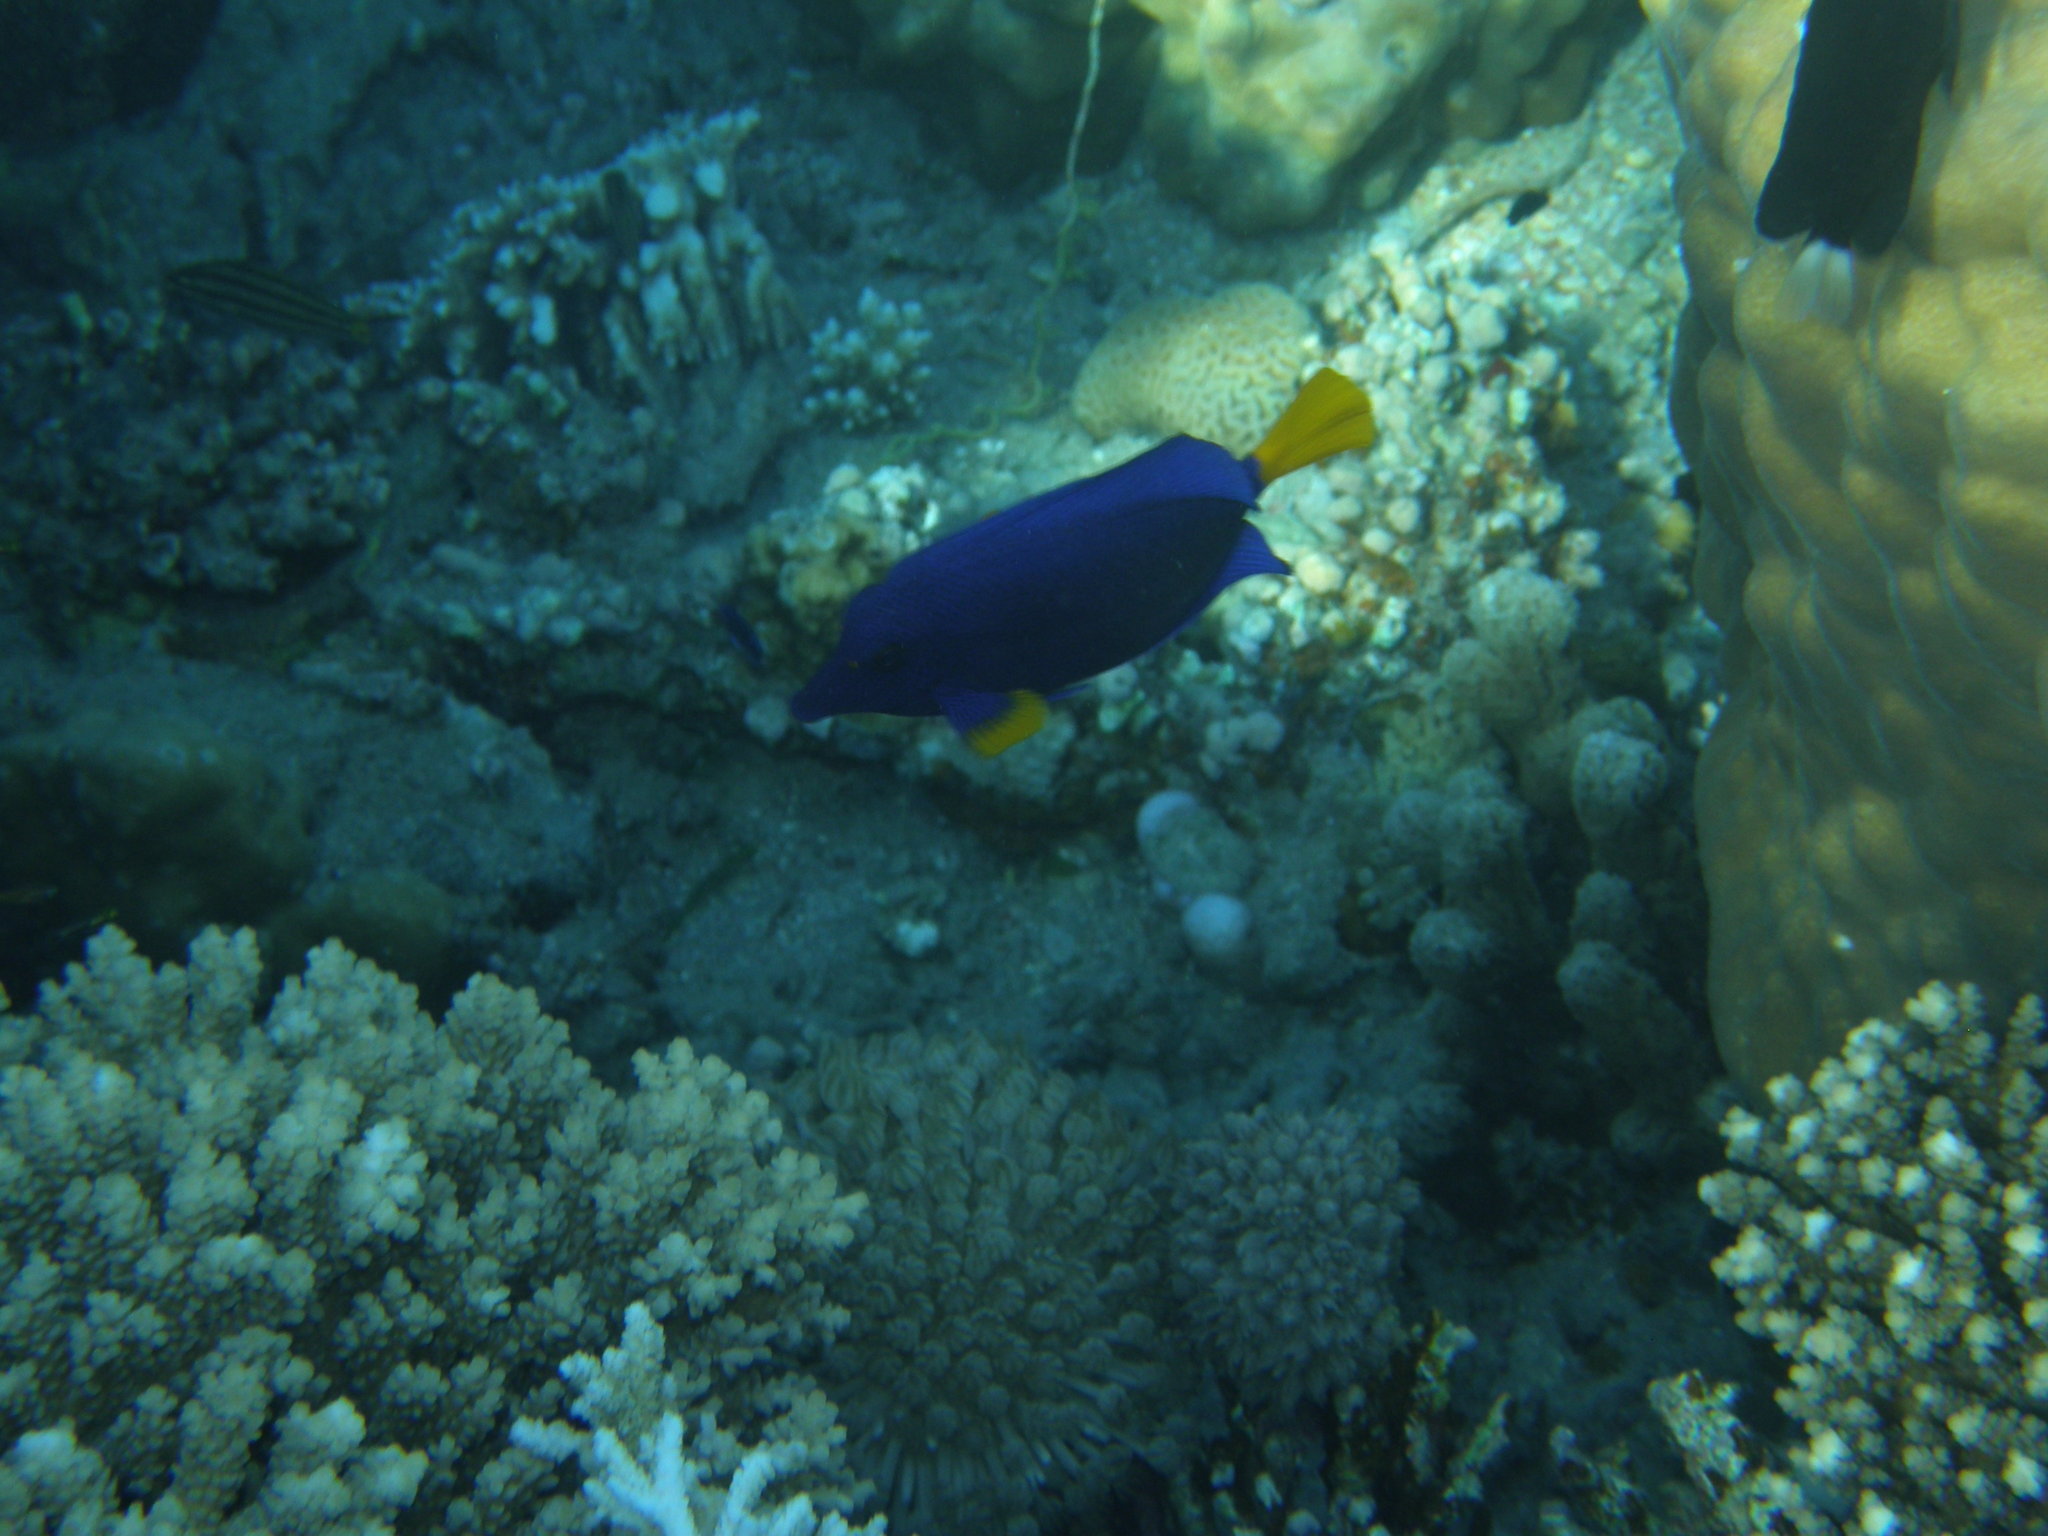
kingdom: Animalia
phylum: Chordata
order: Perciformes
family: Acanthuridae
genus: Zebrasoma
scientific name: Zebrasoma xanthurum
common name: Purple tang
